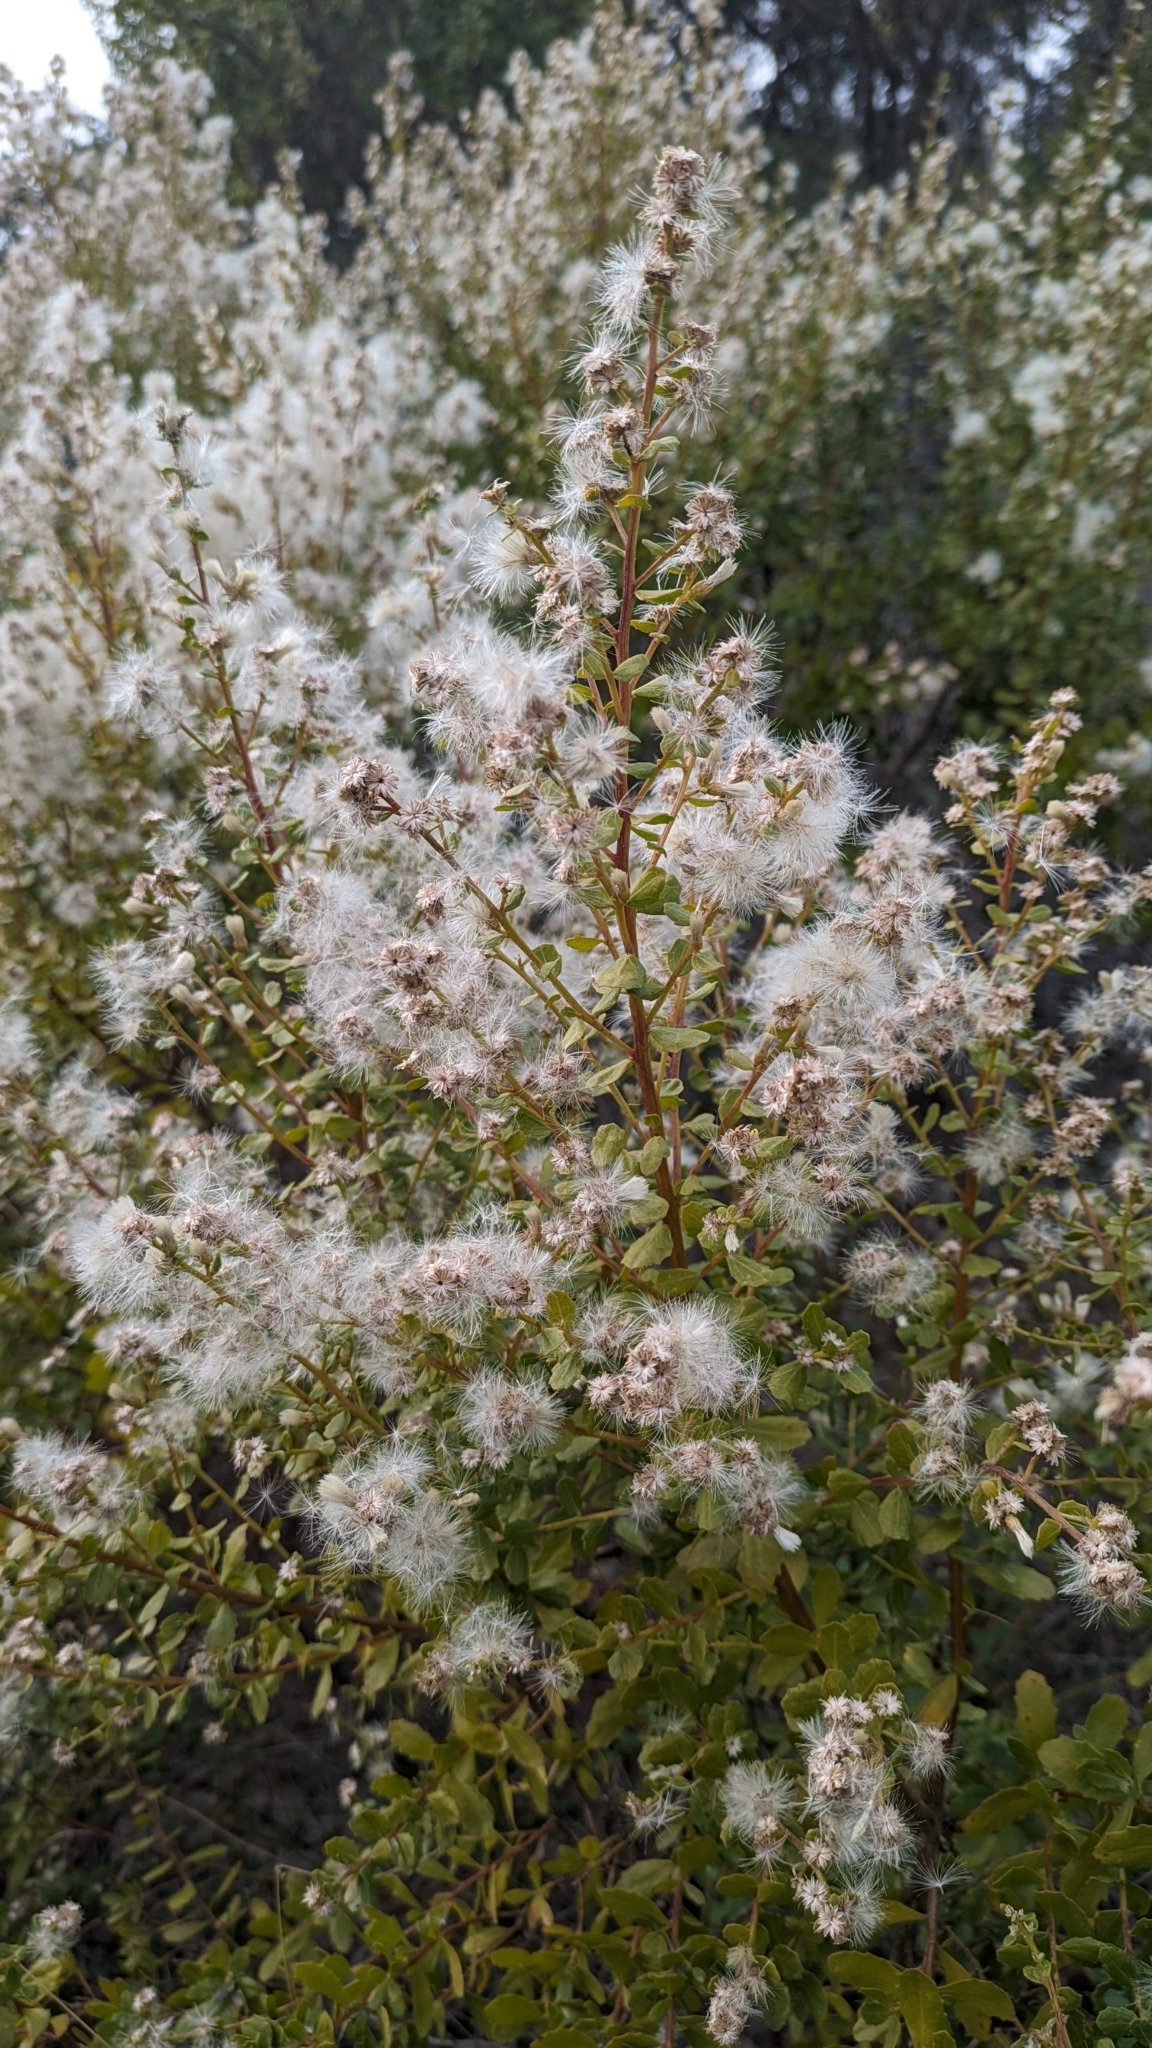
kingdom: Plantae
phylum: Tracheophyta
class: Magnoliopsida
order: Asterales
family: Asteraceae
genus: Baccharis
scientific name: Baccharis pilularis
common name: Coyotebrush
